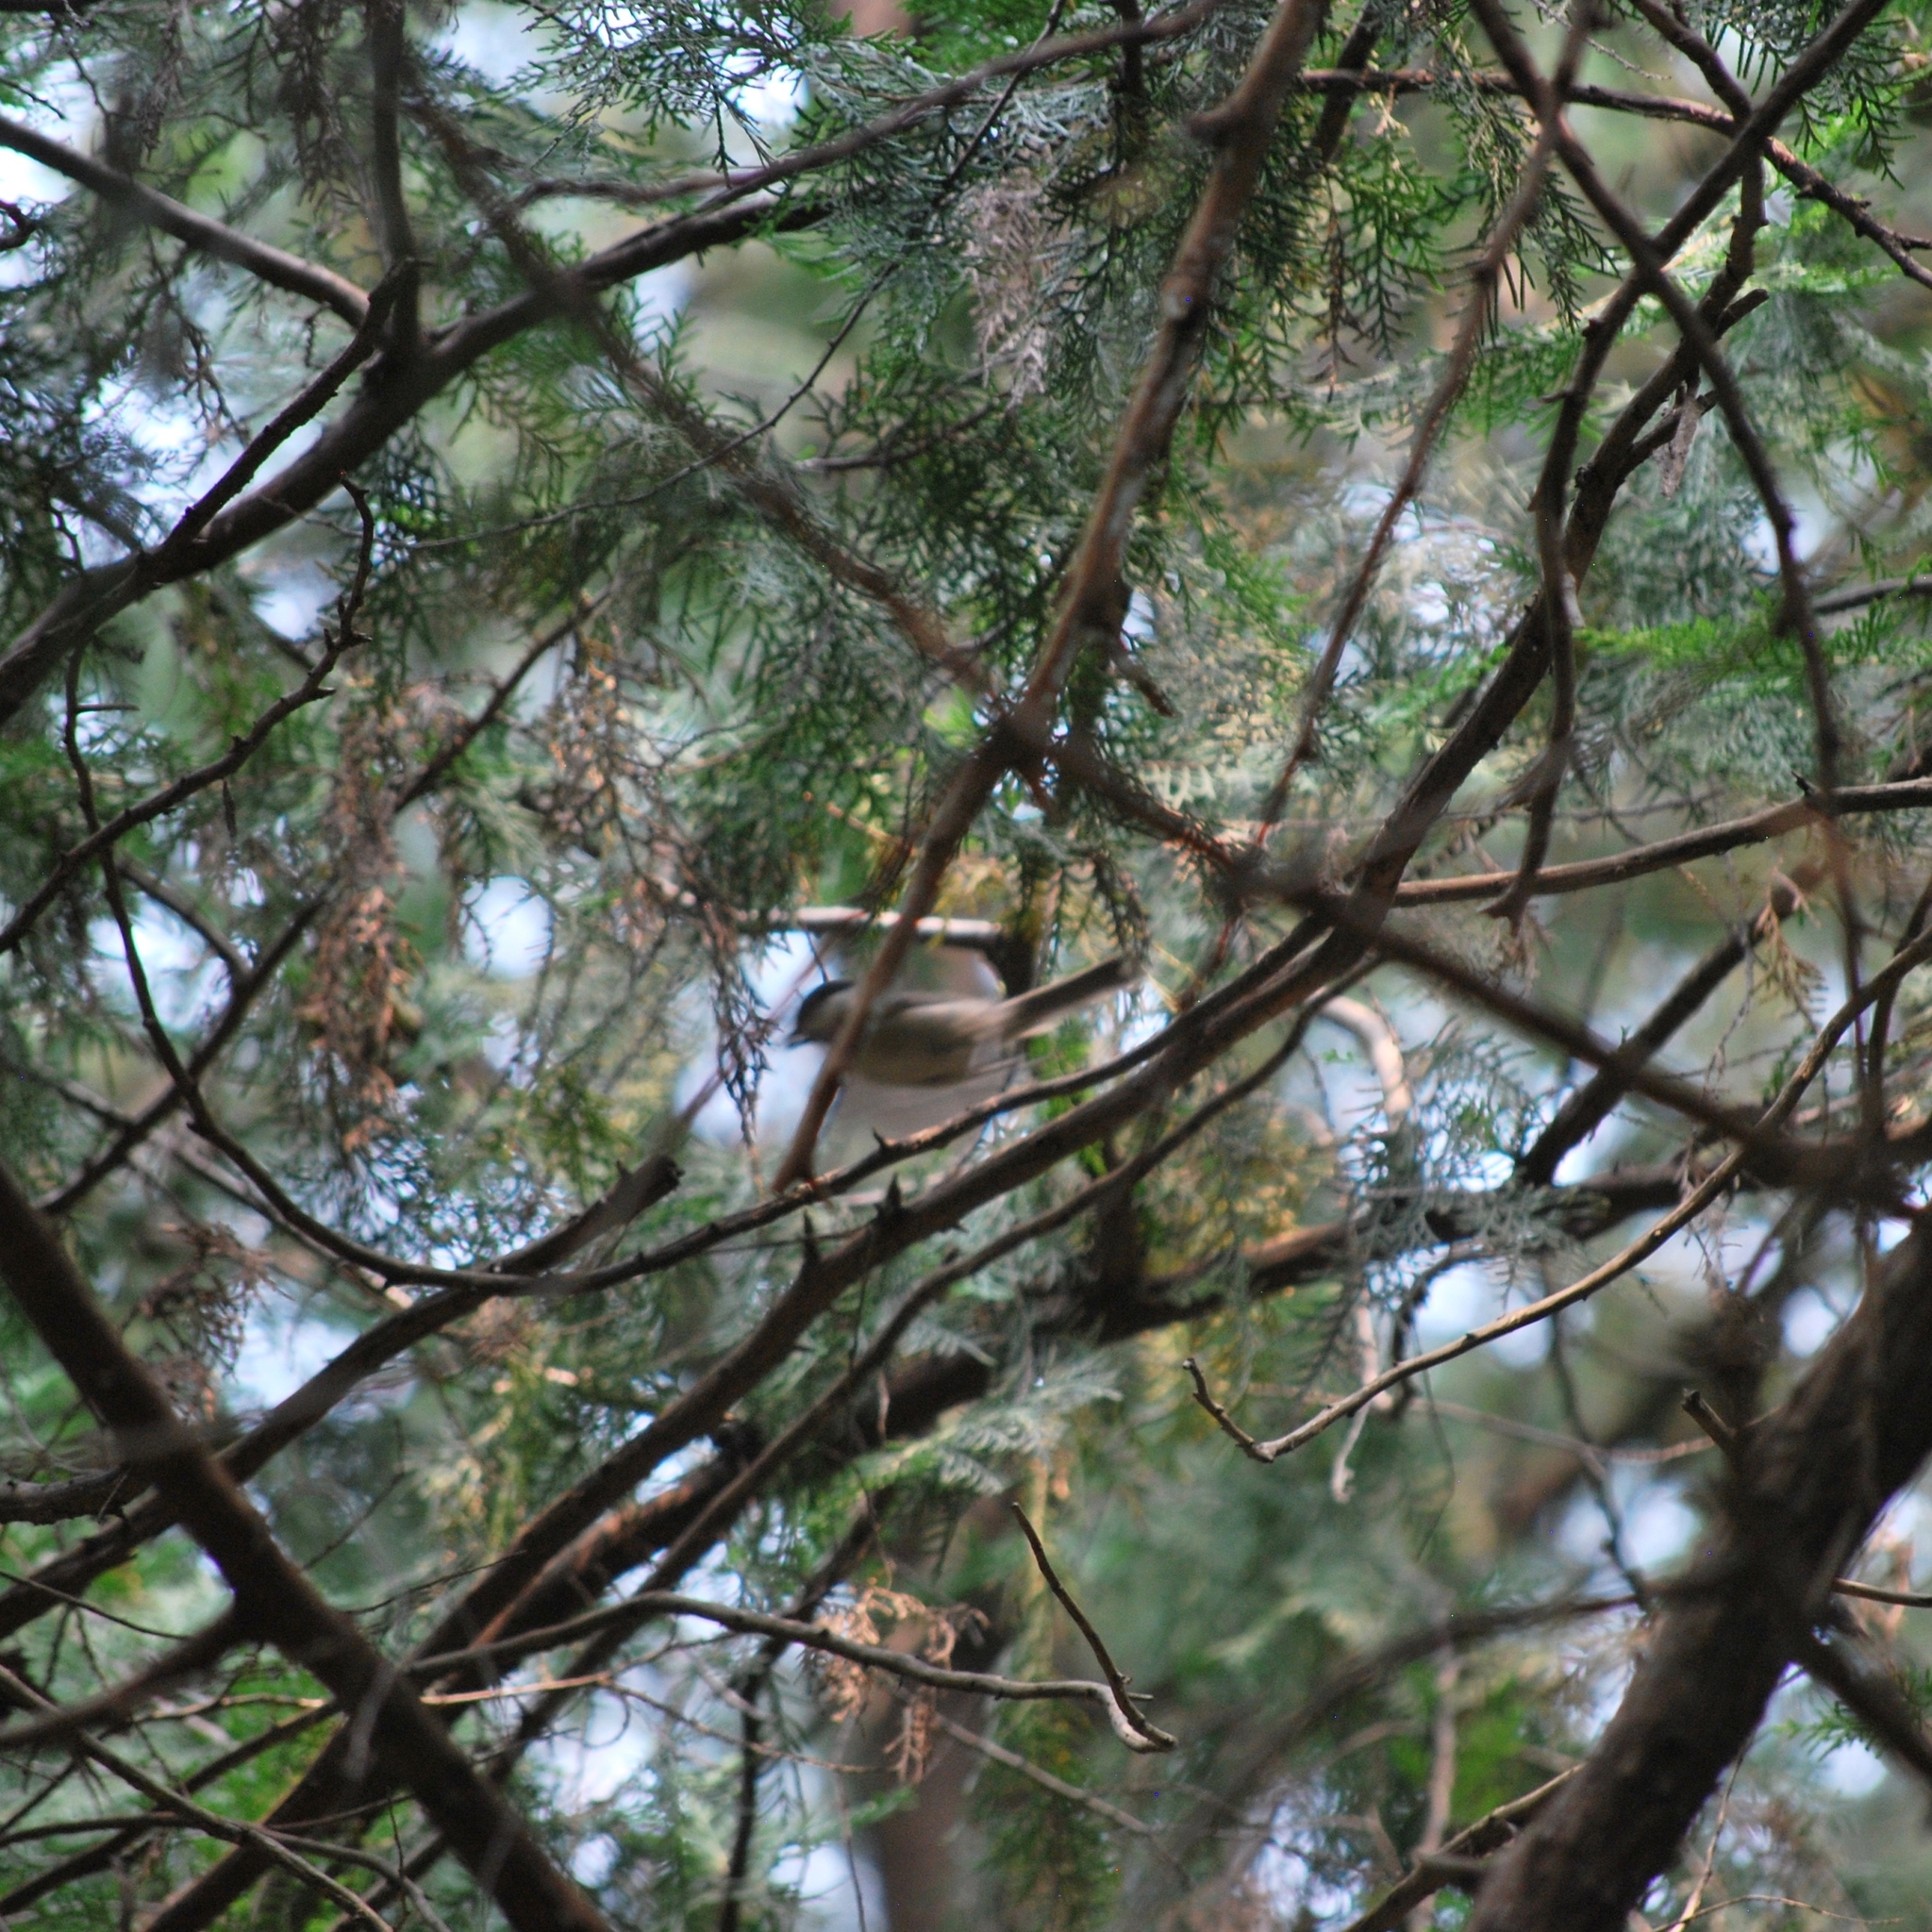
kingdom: Animalia
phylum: Chordata
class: Aves
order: Passeriformes
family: Paridae
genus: Poecile
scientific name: Poecile palustris
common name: Marsh tit
